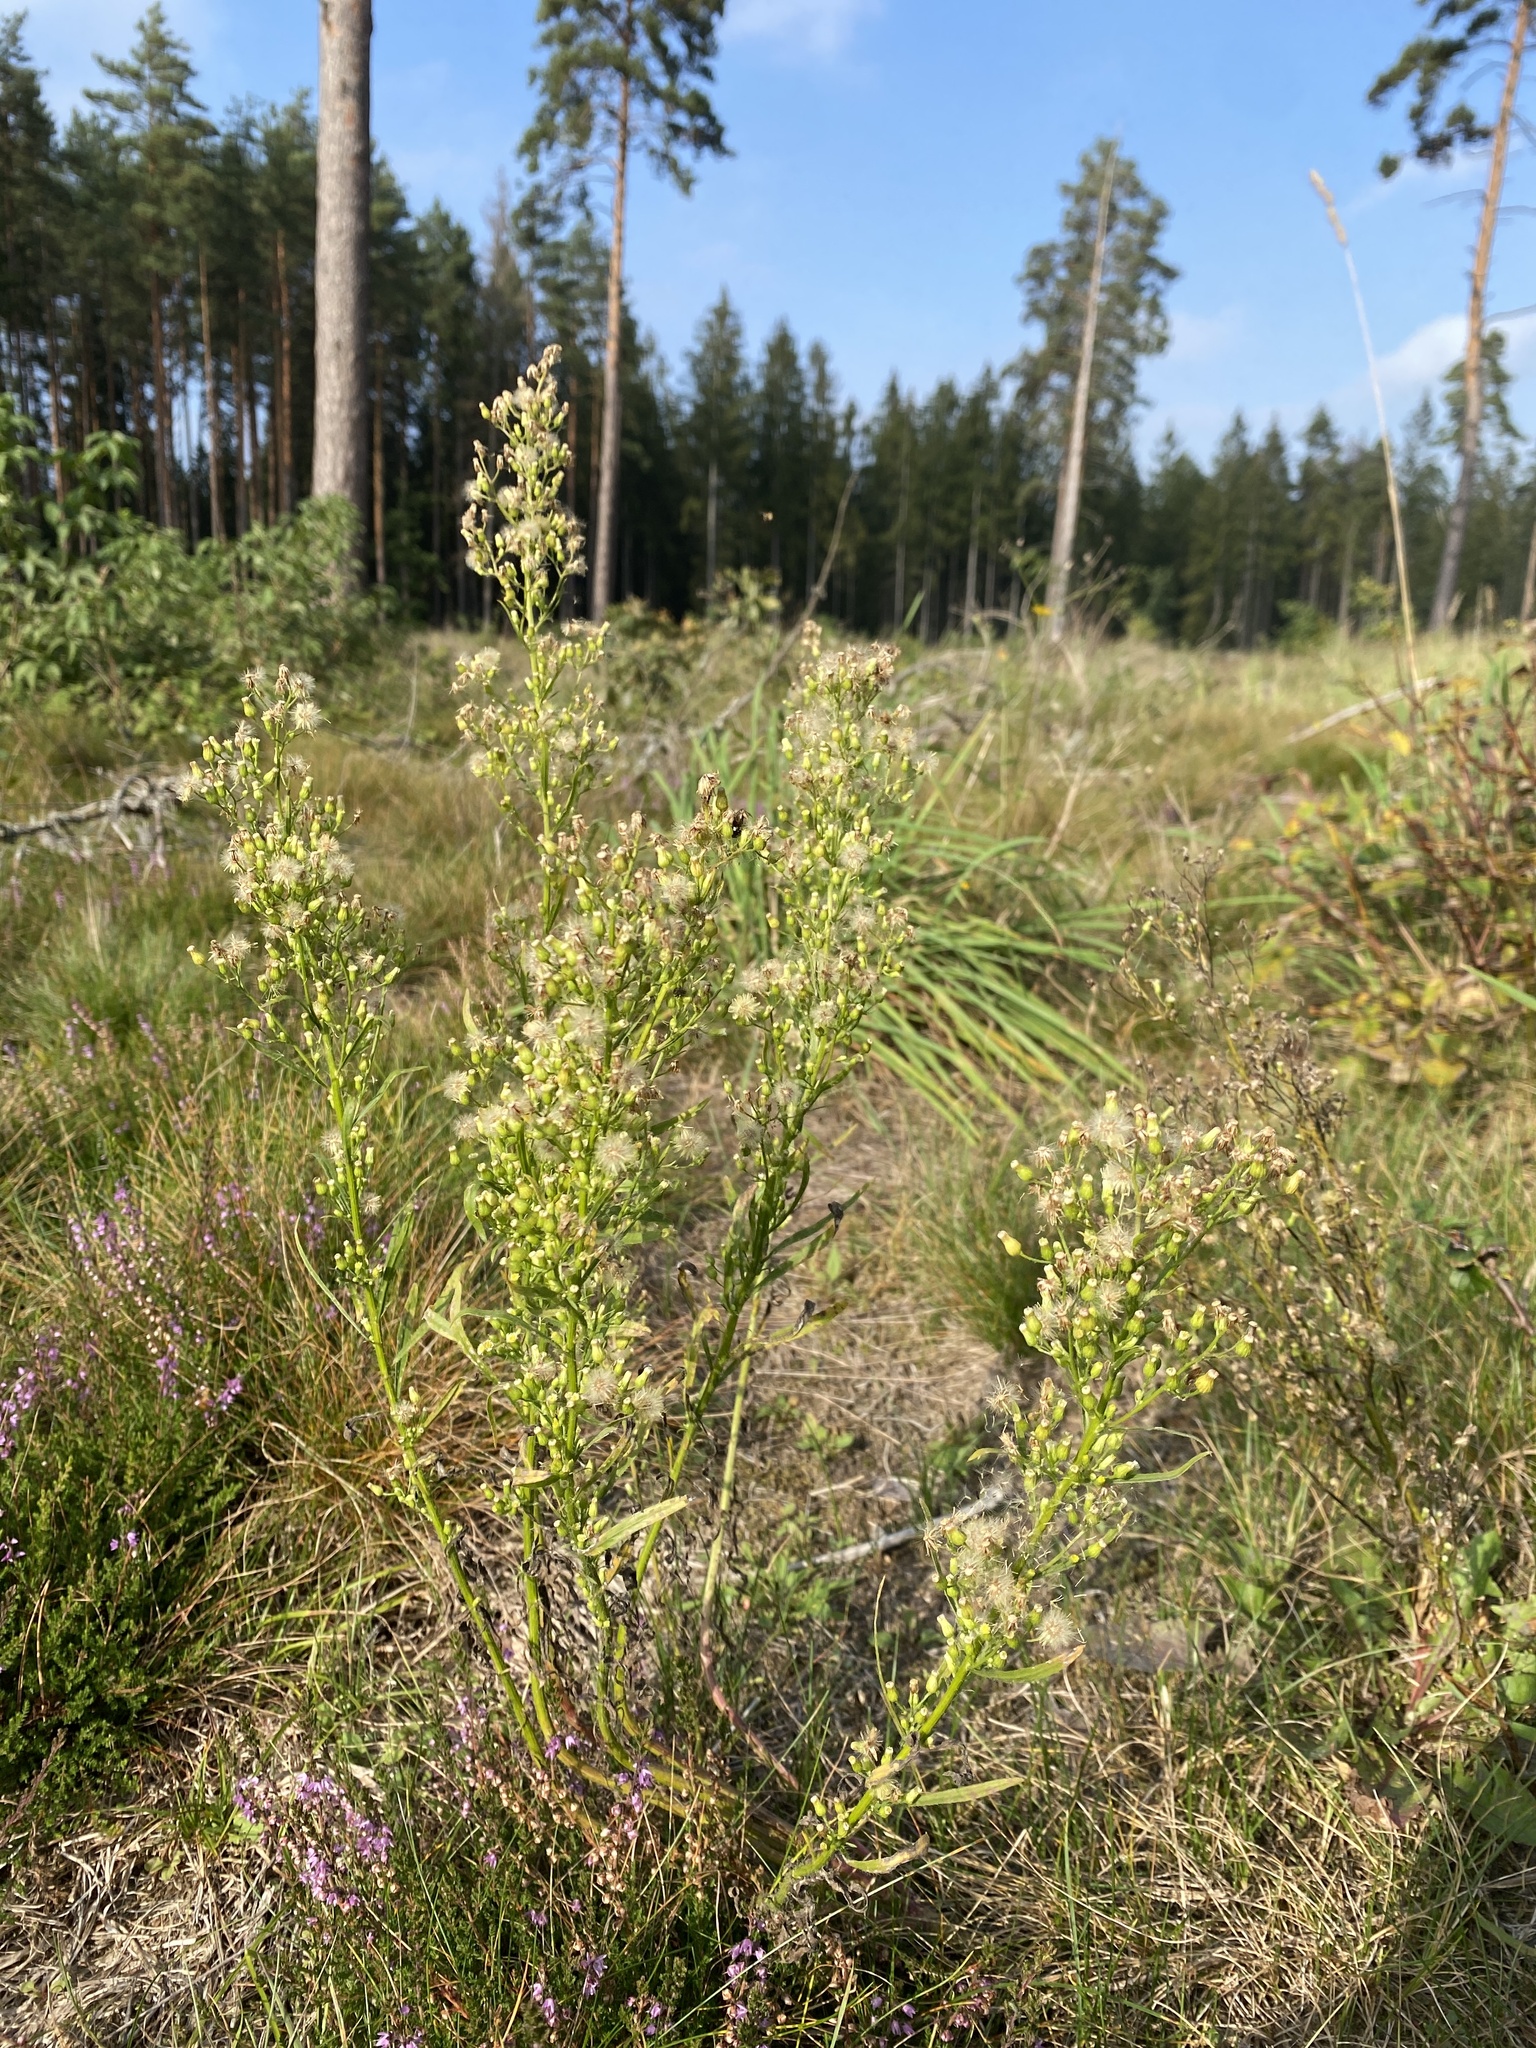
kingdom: Plantae
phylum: Tracheophyta
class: Magnoliopsida
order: Asterales
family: Asteraceae
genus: Erigeron
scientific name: Erigeron canadensis
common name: Canadian fleabane
